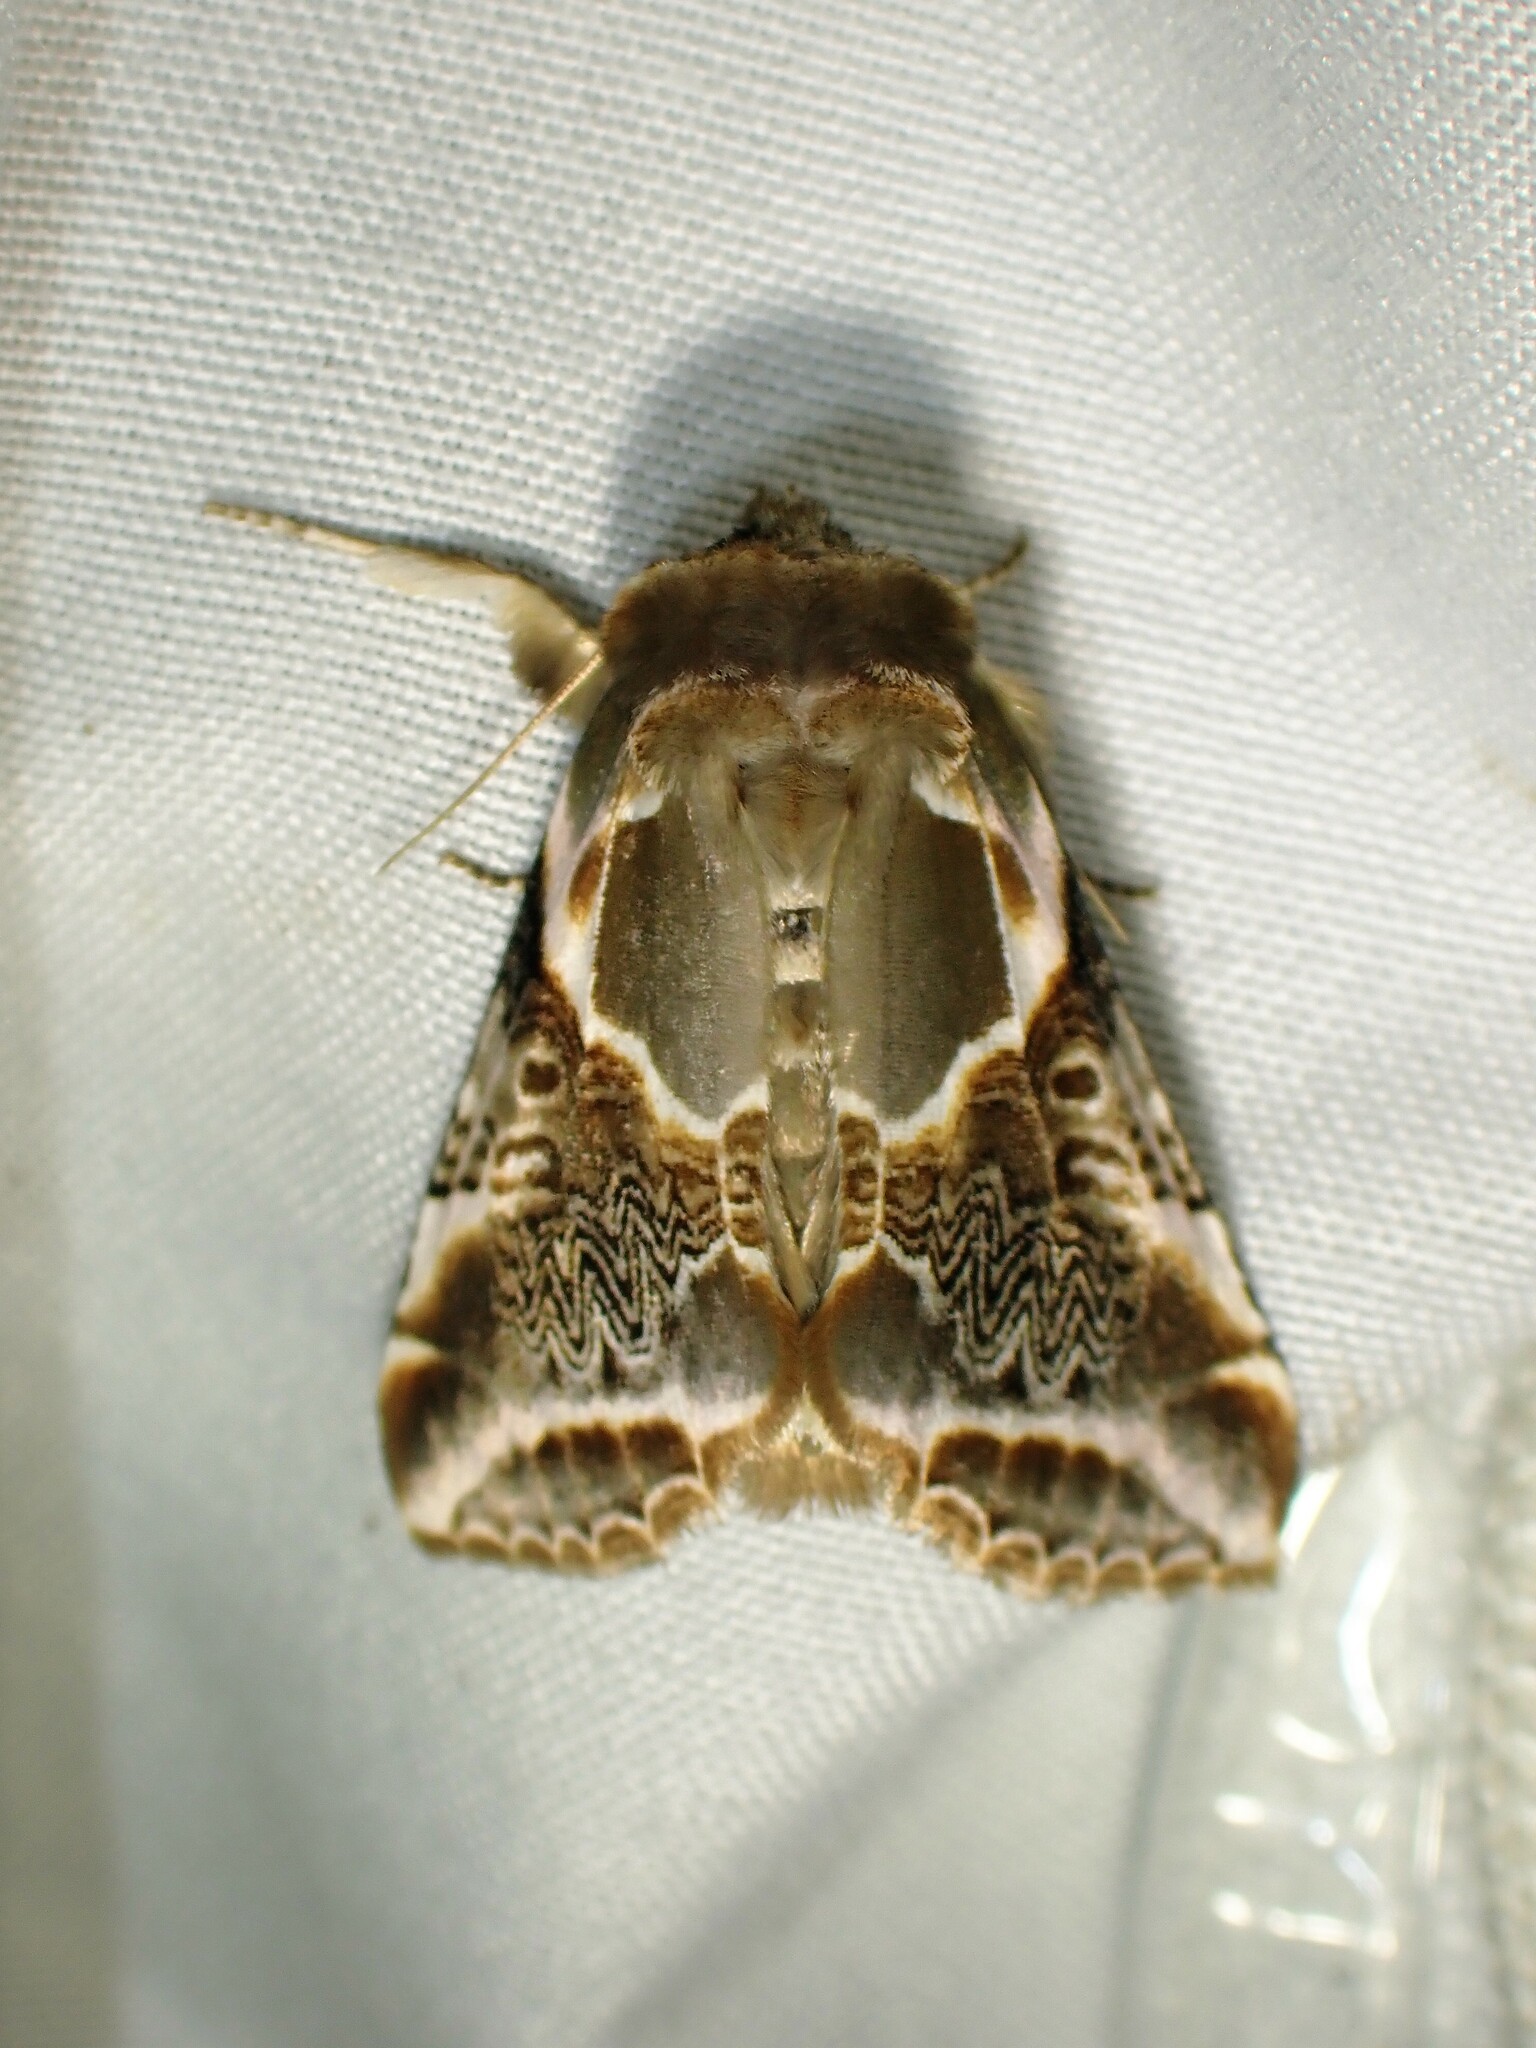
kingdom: Animalia
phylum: Arthropoda
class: Insecta
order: Lepidoptera
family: Drepanidae
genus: Habrosyne
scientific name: Habrosyne scripta
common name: Lettered habrosyne moth
